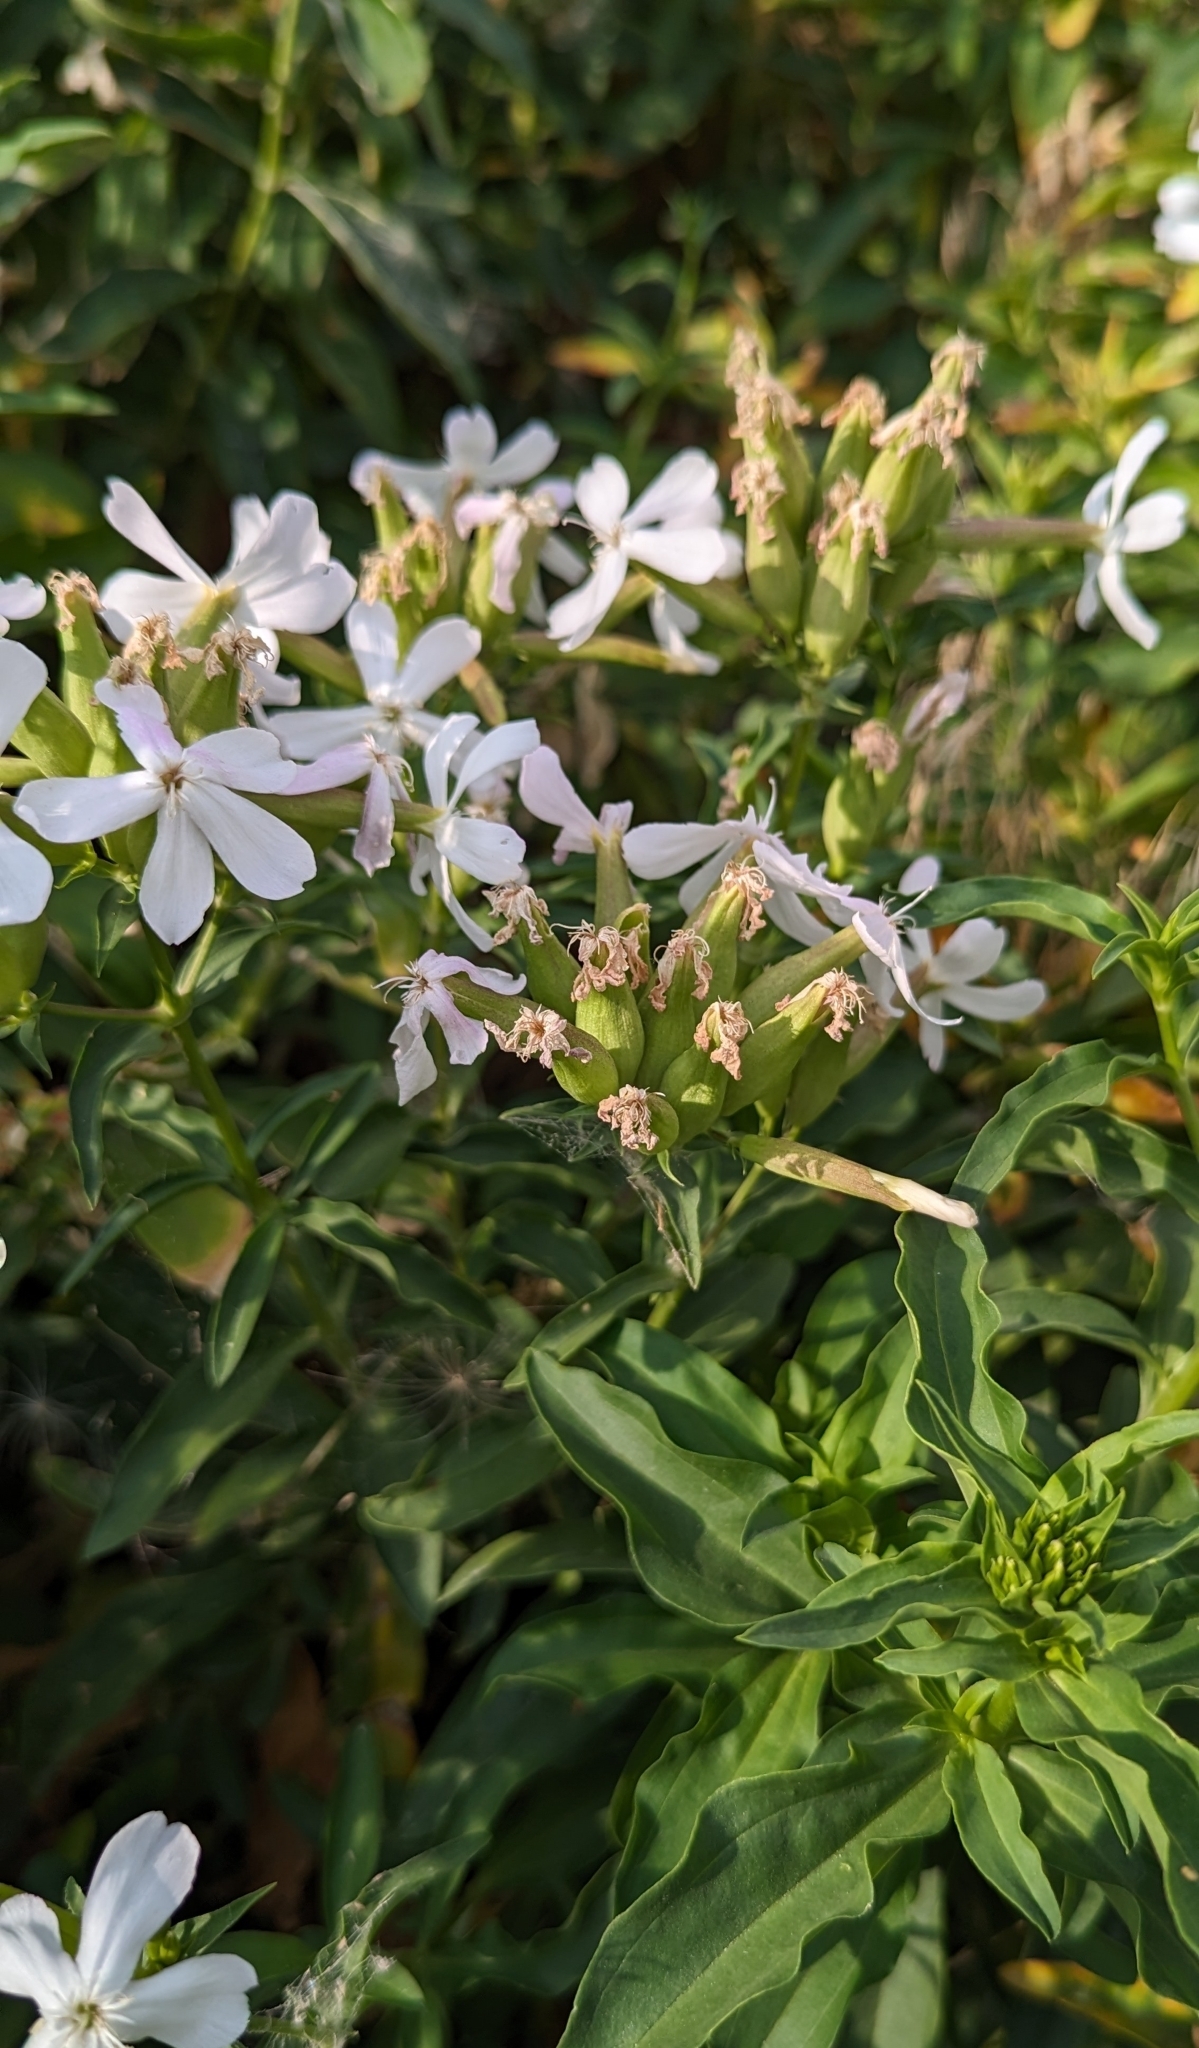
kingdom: Plantae
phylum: Tracheophyta
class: Magnoliopsida
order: Caryophyllales
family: Caryophyllaceae
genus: Saponaria
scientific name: Saponaria officinalis
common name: Soapwort
